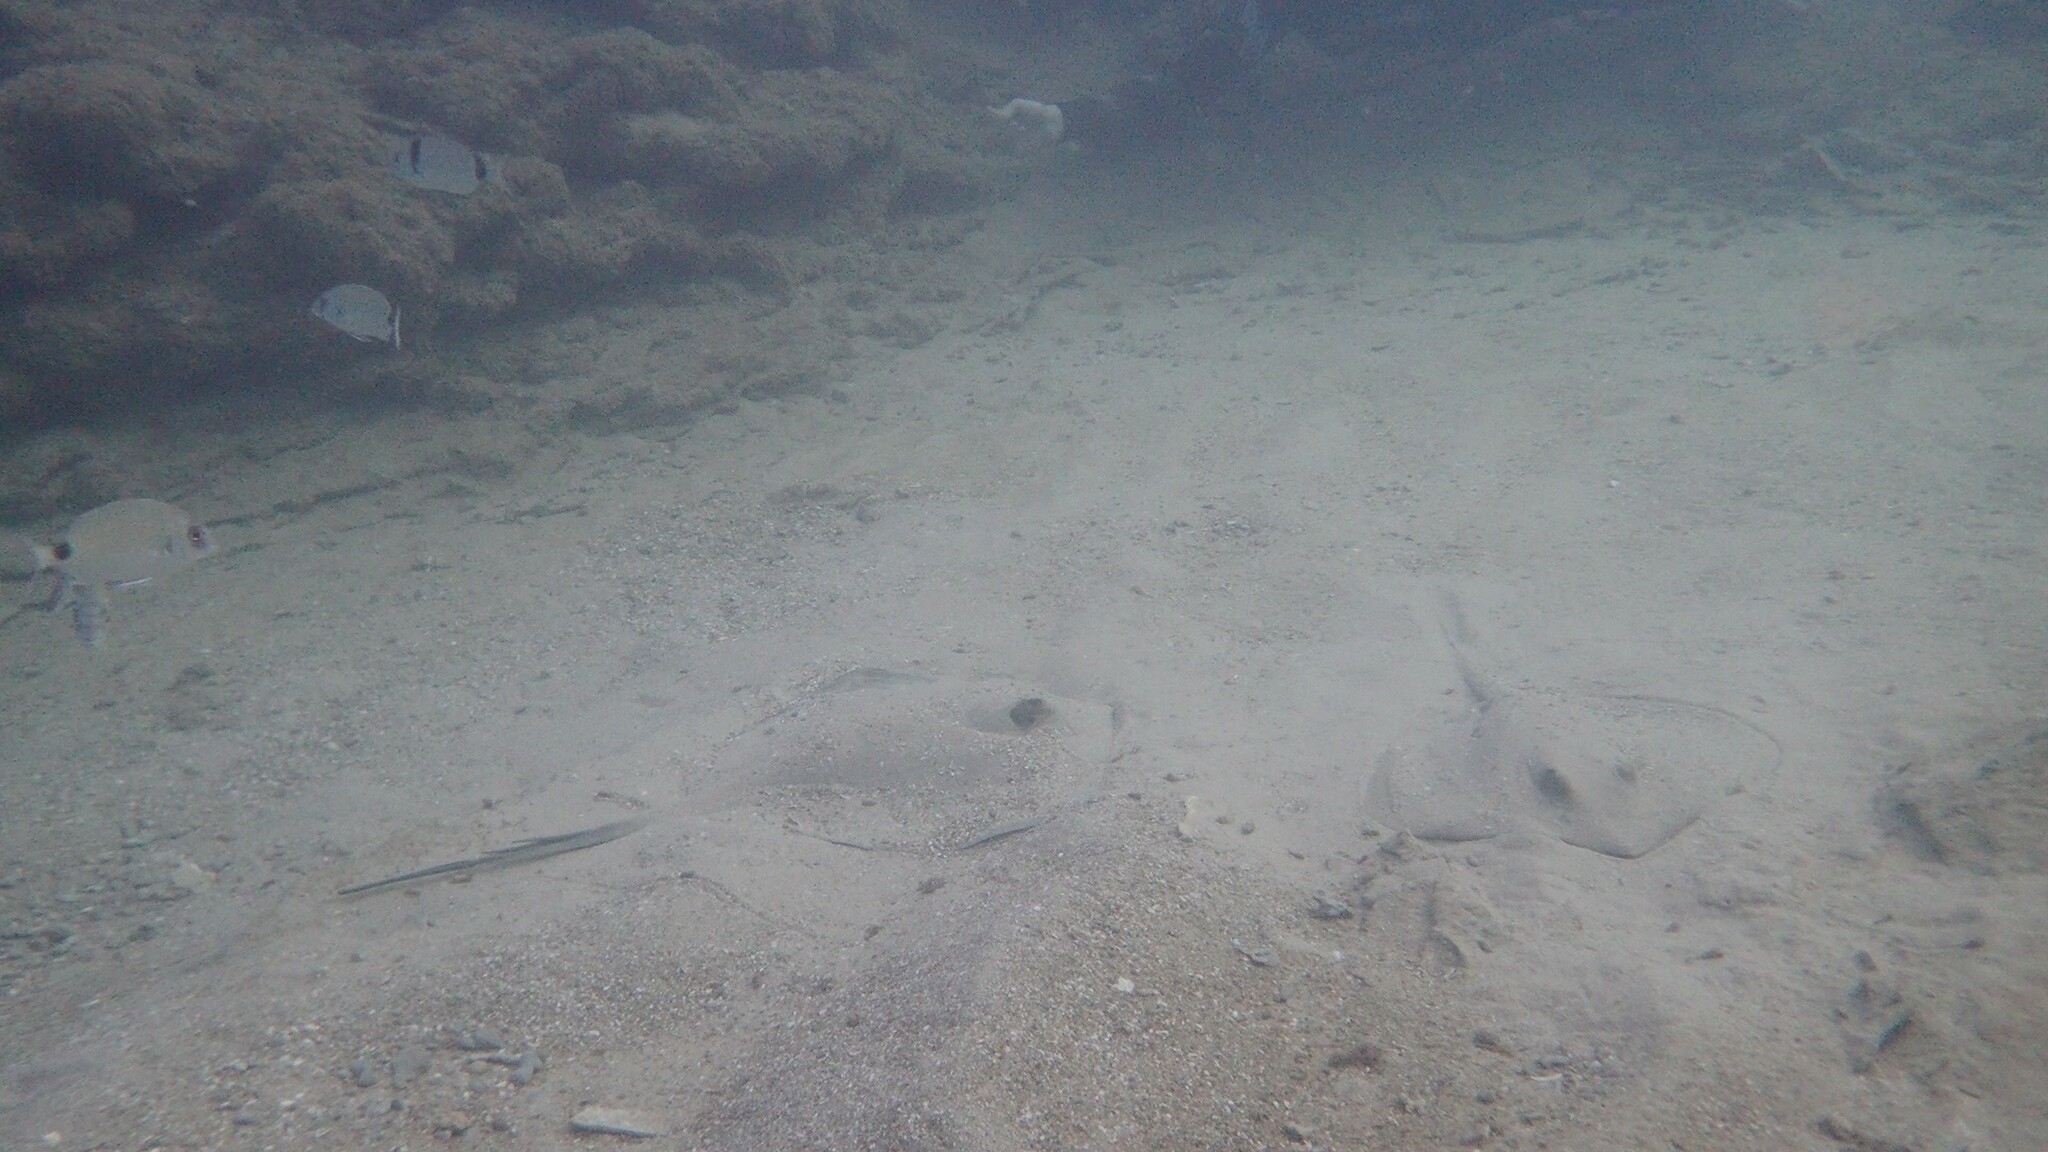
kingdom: Animalia
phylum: Chordata
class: Elasmobranchii
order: Myliobatiformes
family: Dasyatidae
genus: Dasyatis
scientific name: Dasyatis pastinaca
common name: Common stingray
